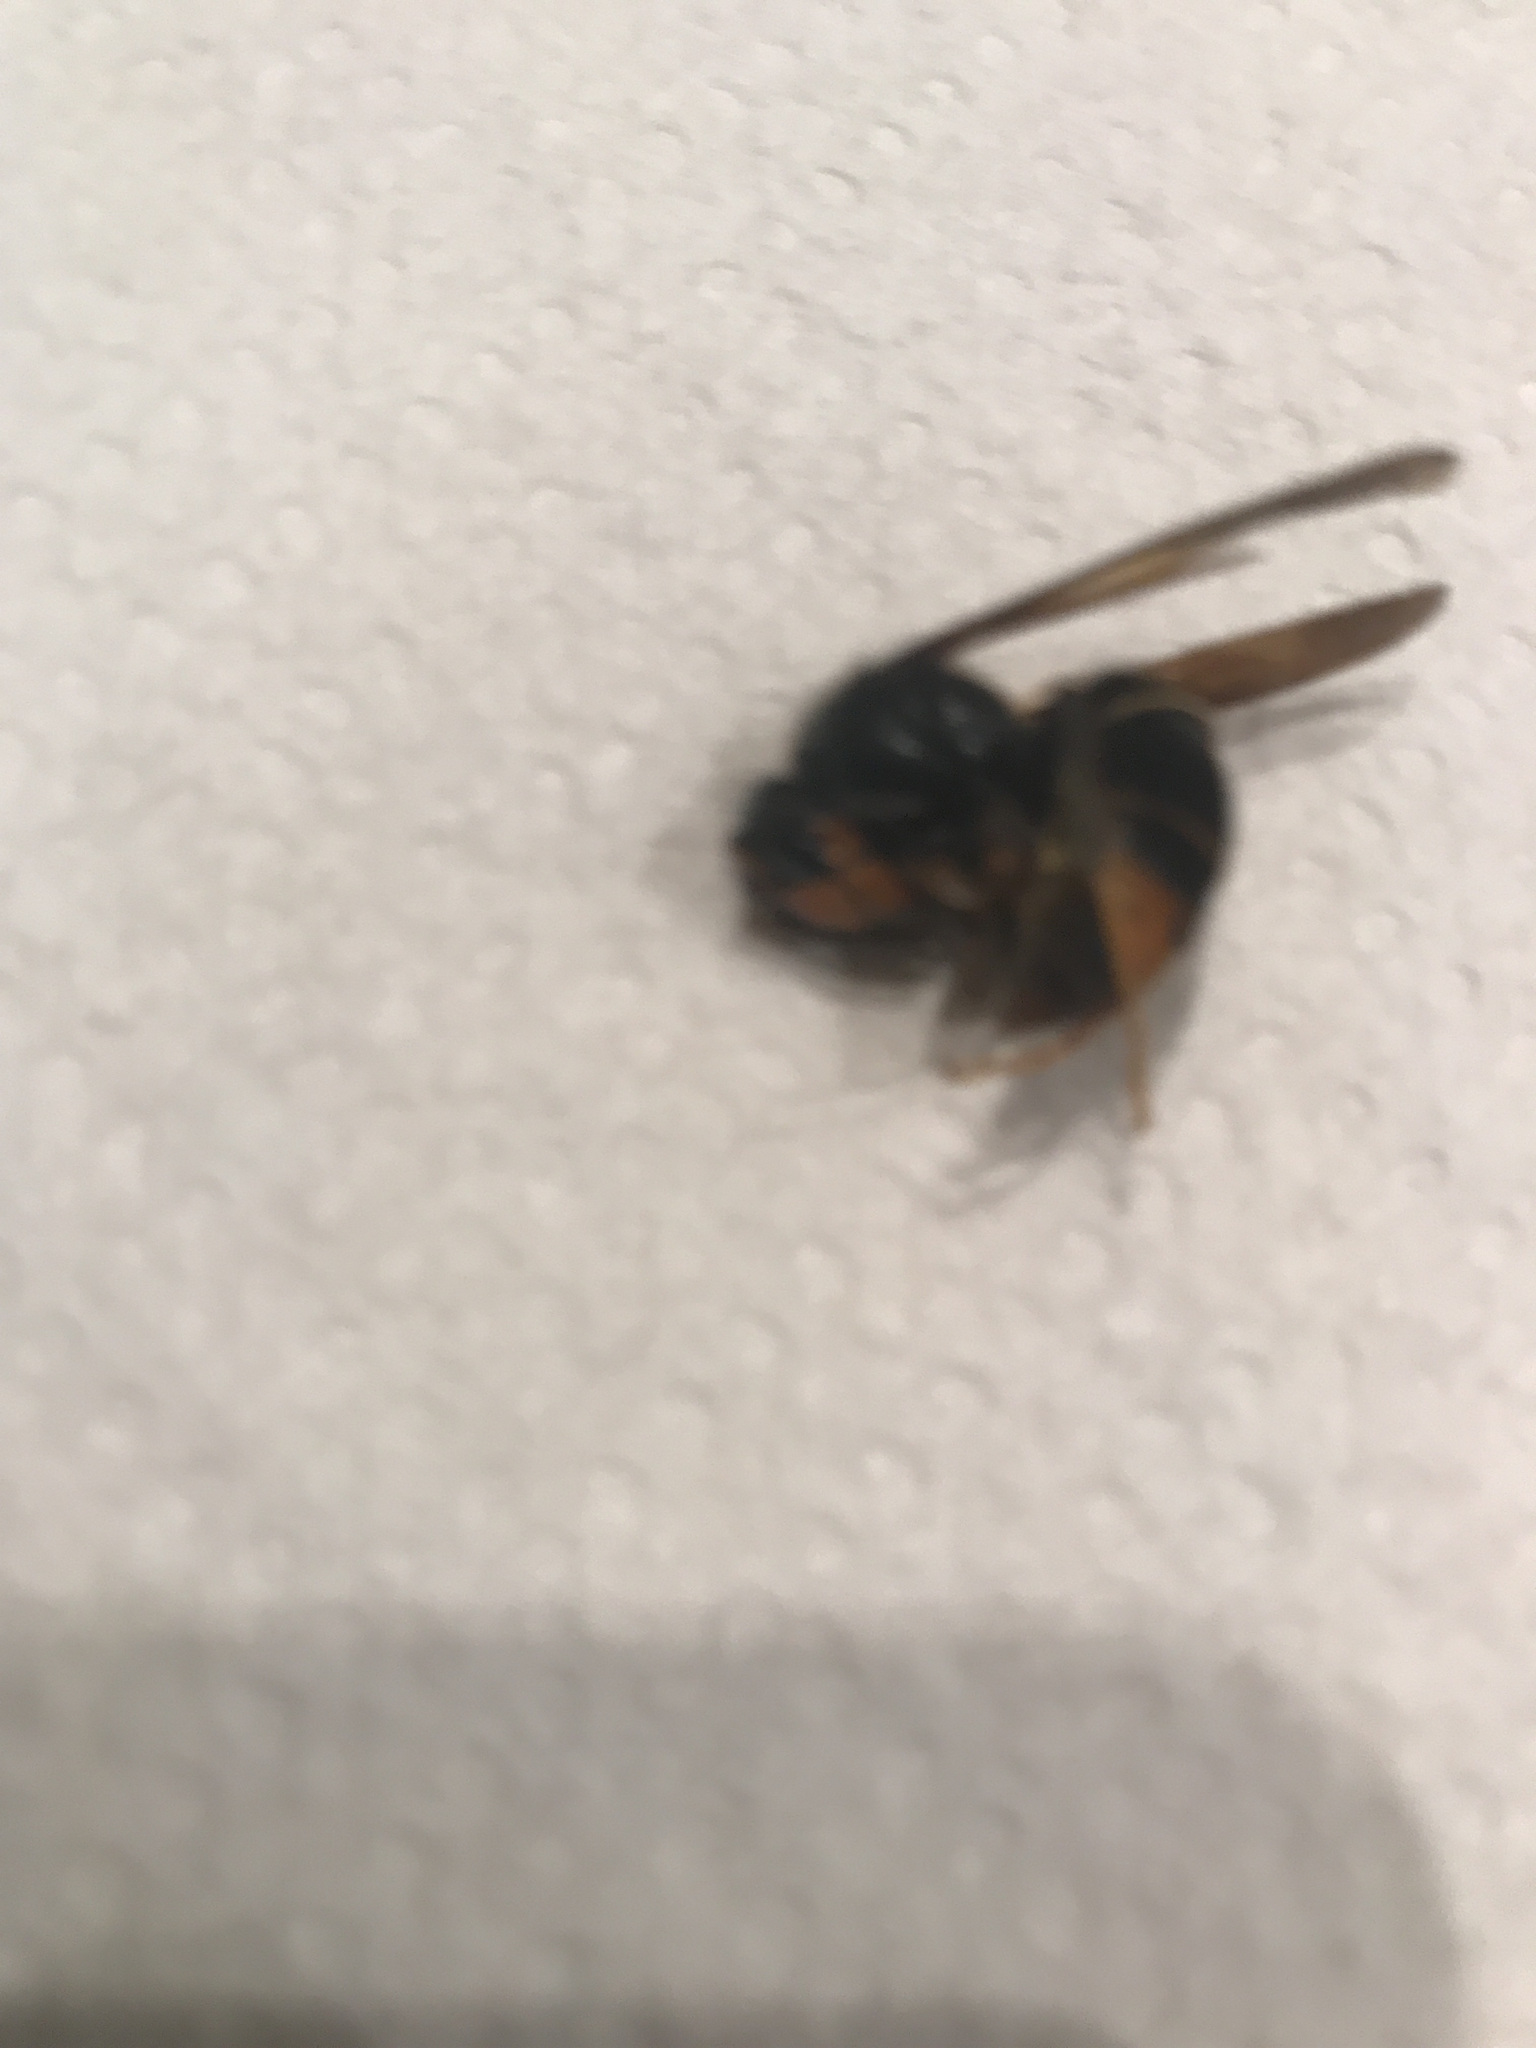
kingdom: Animalia
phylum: Arthropoda
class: Insecta
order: Hymenoptera
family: Vespidae
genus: Vespa
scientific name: Vespa velutina
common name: Asian hornet
